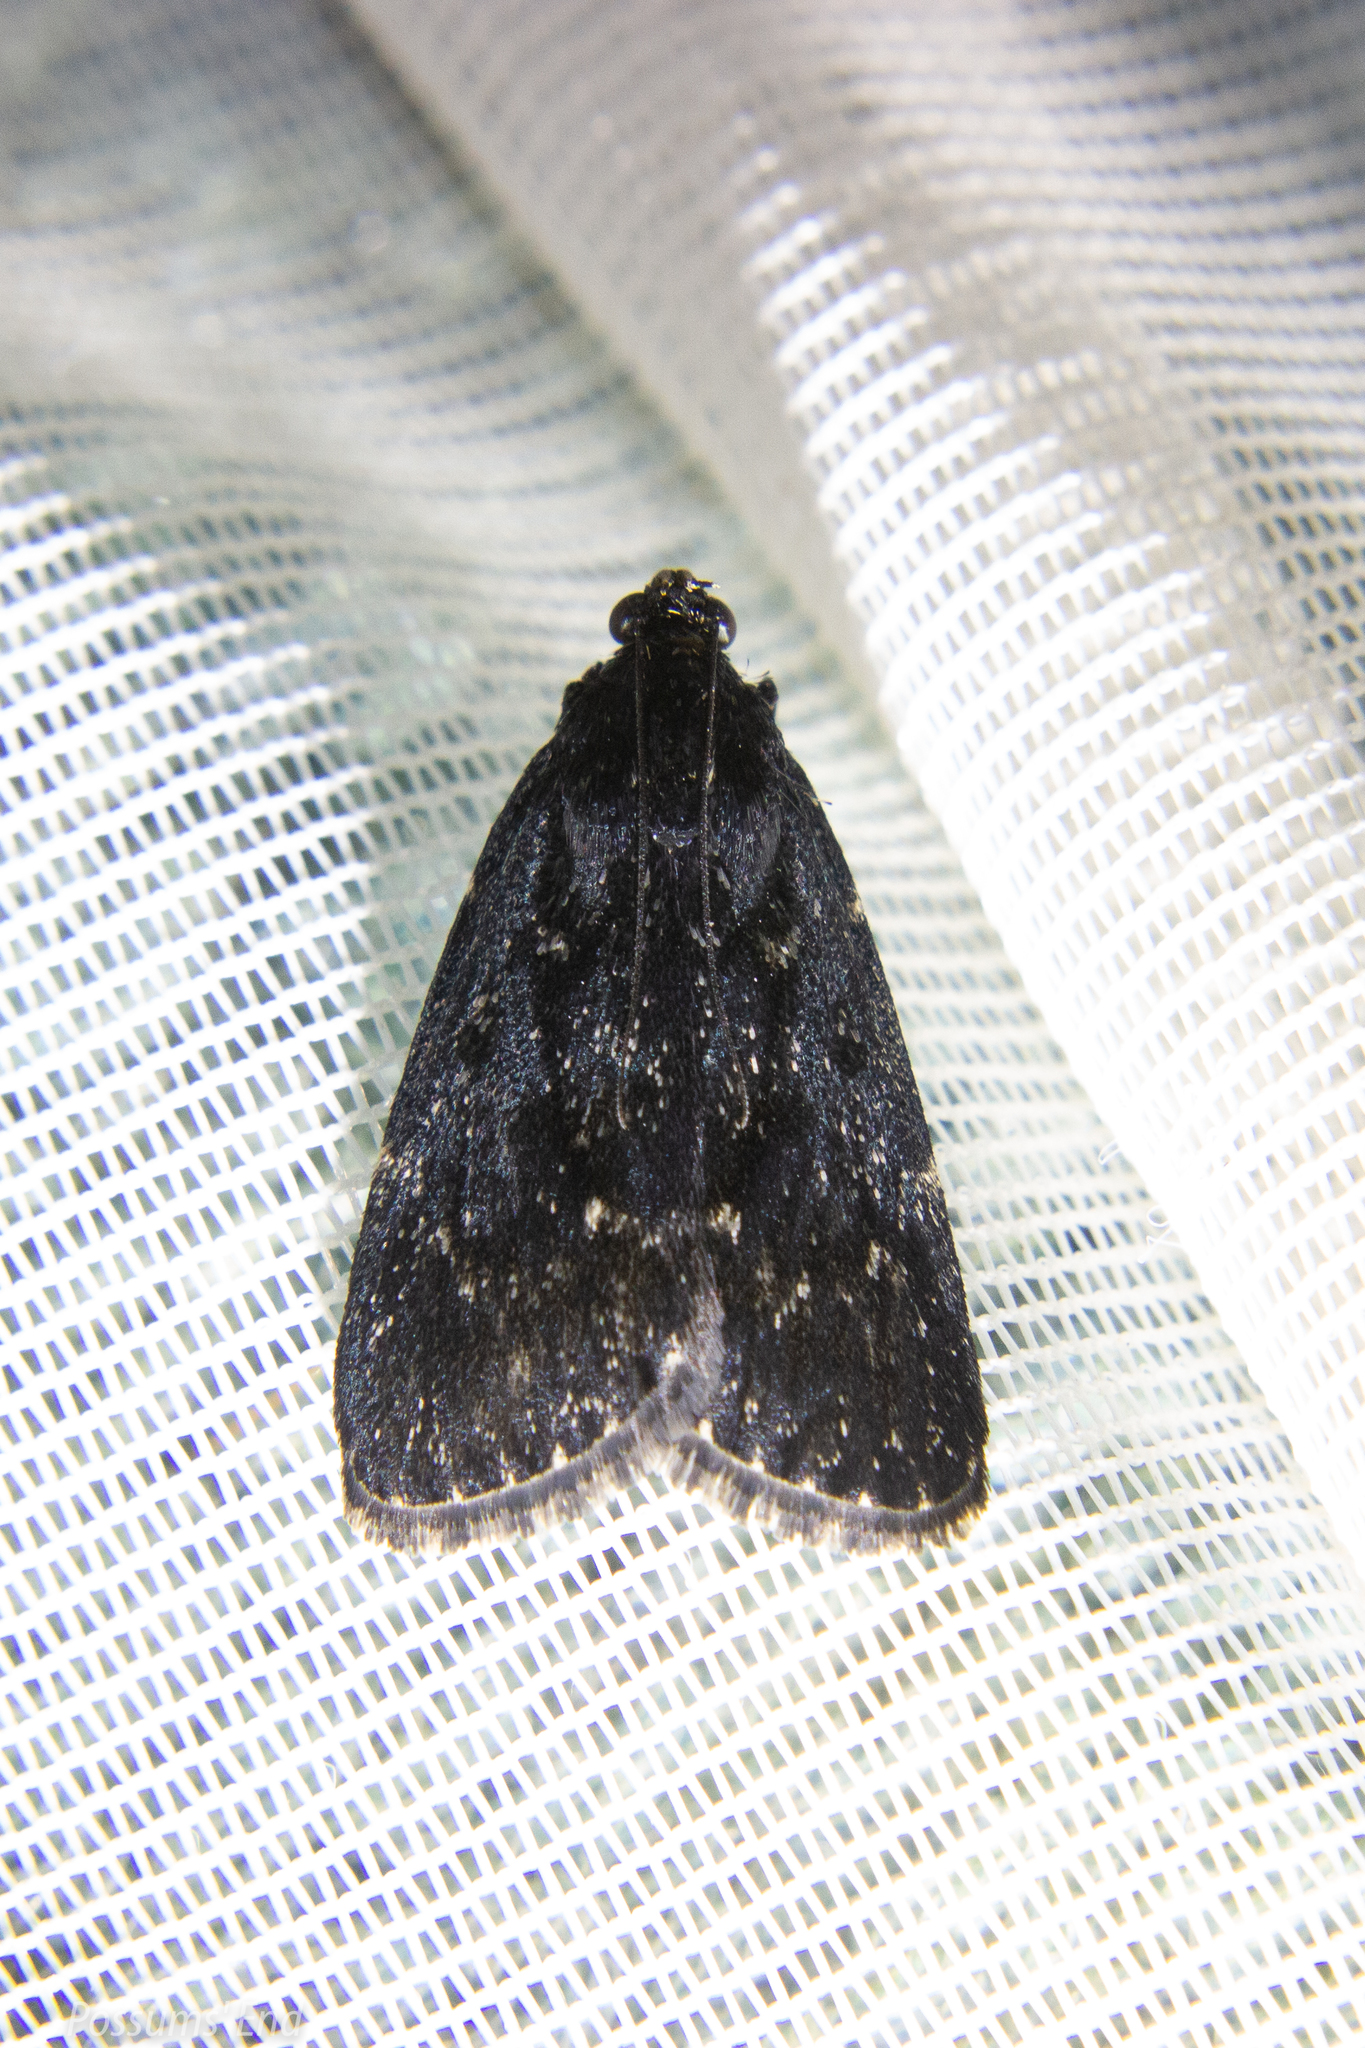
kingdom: Animalia
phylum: Arthropoda
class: Insecta
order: Lepidoptera
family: Pyralidae
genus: Stericta
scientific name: Stericta carbonalis
